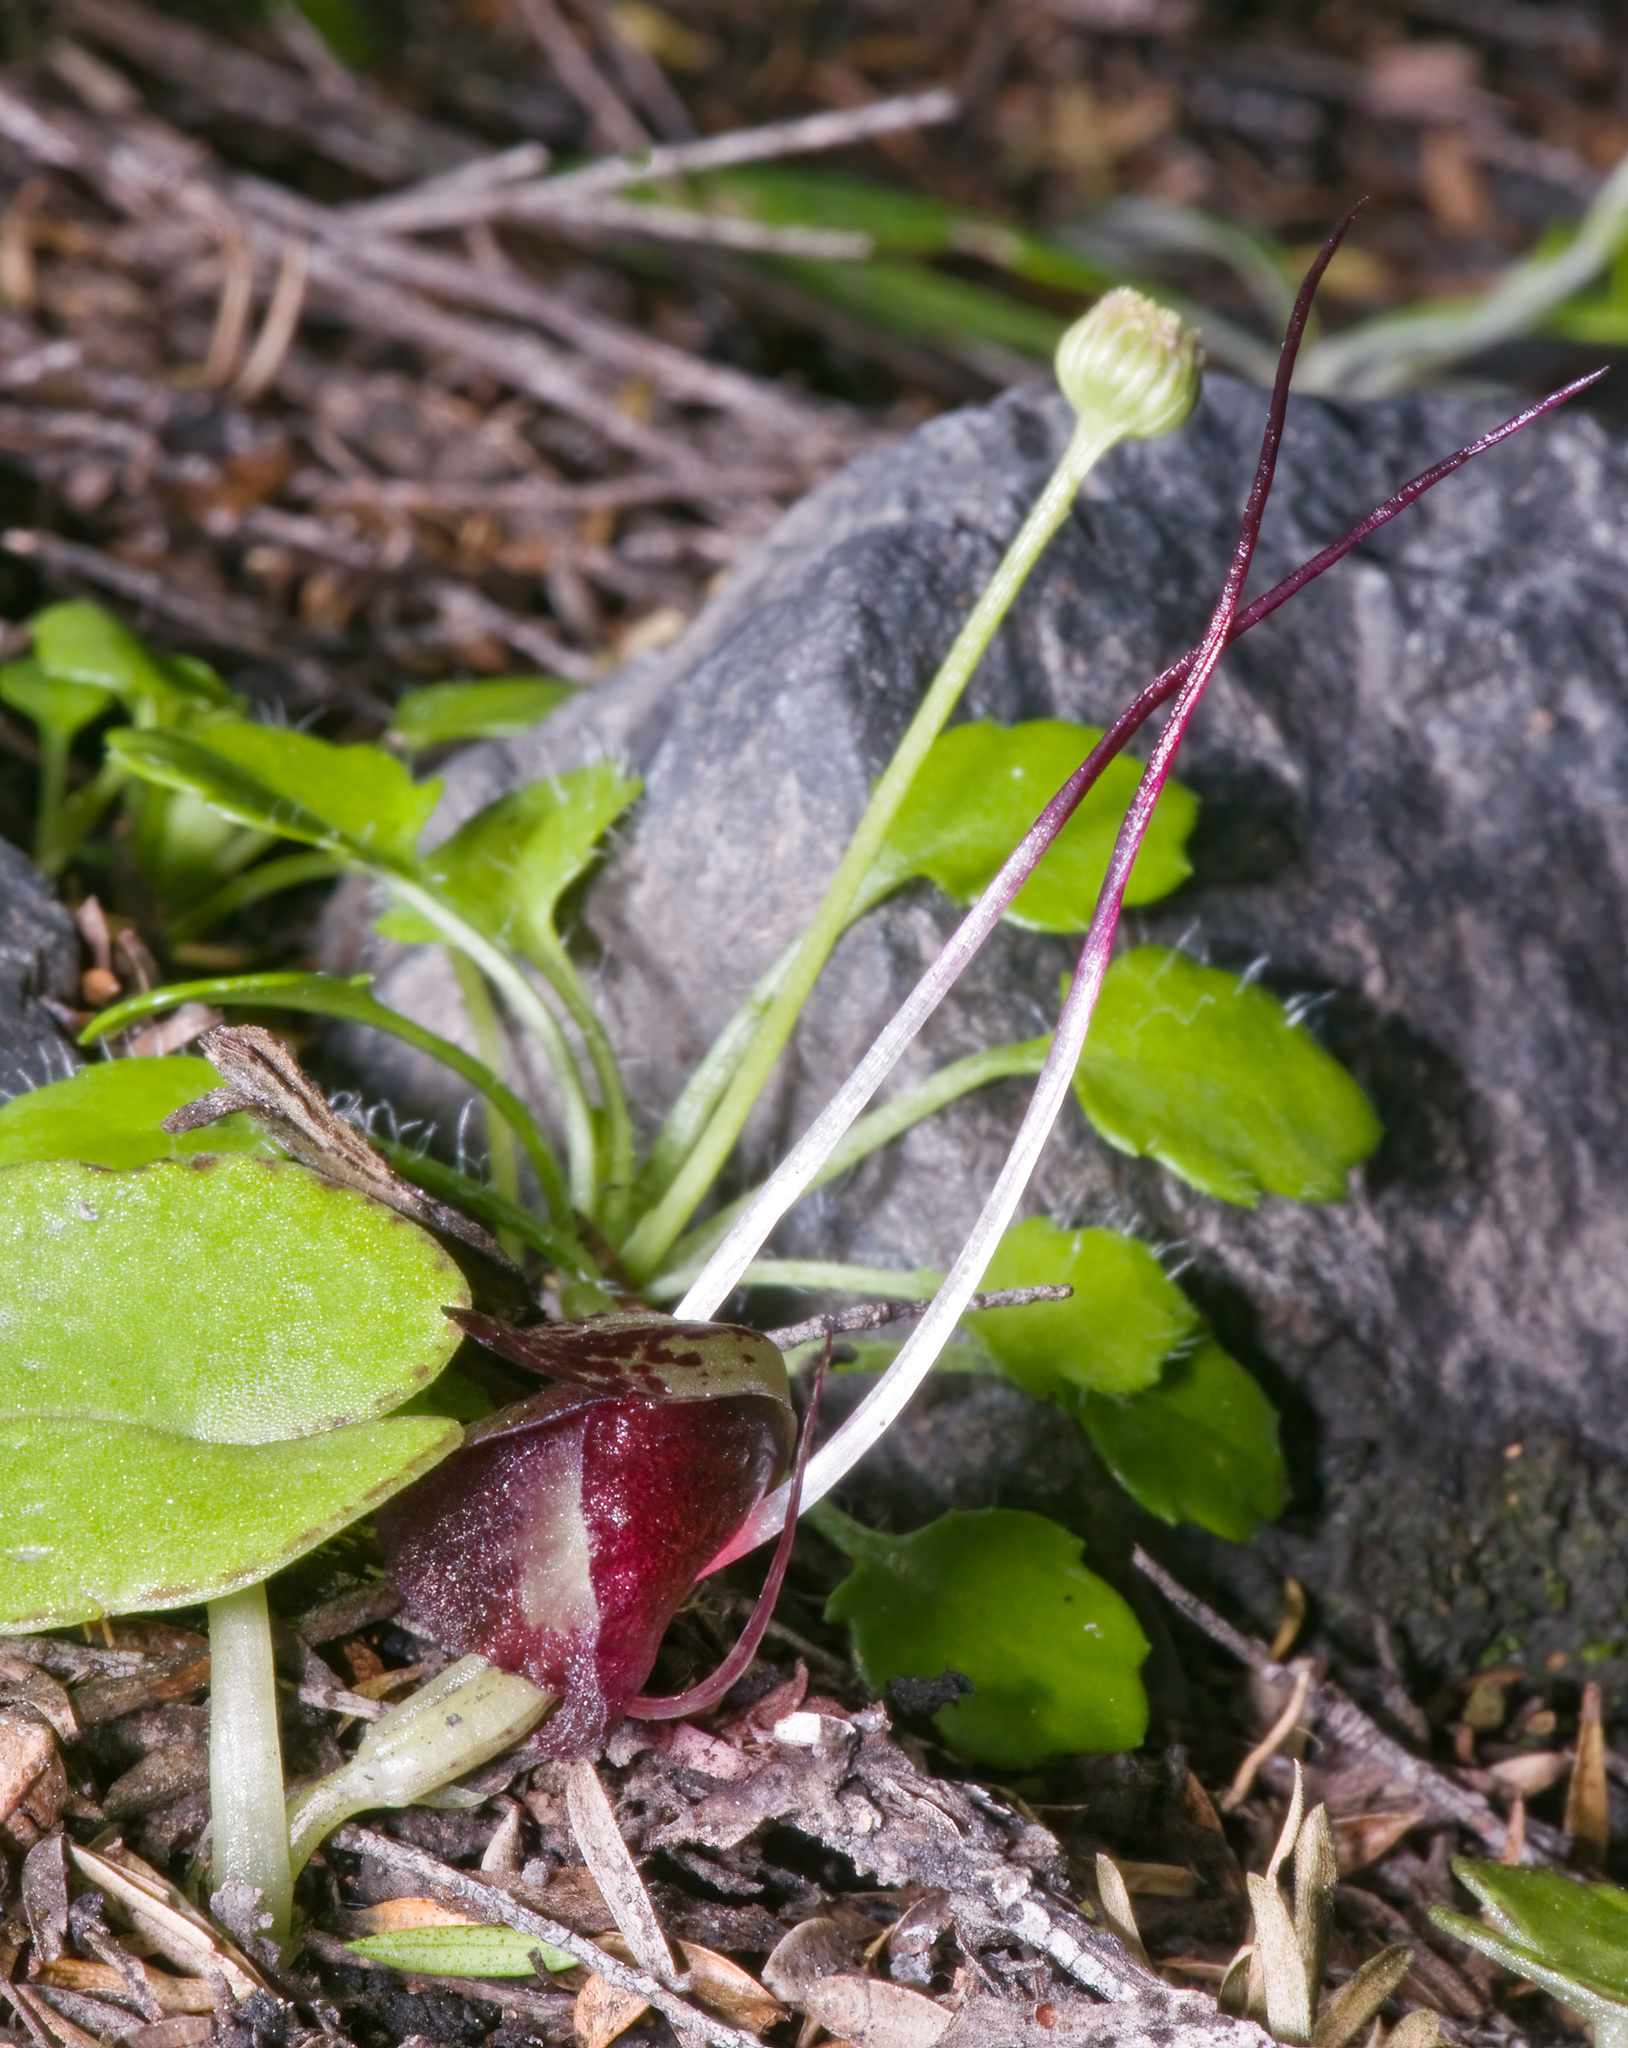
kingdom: Plantae
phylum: Tracheophyta
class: Liliopsida
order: Asparagales
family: Orchidaceae
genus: Corybas
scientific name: Corybas macranthus
